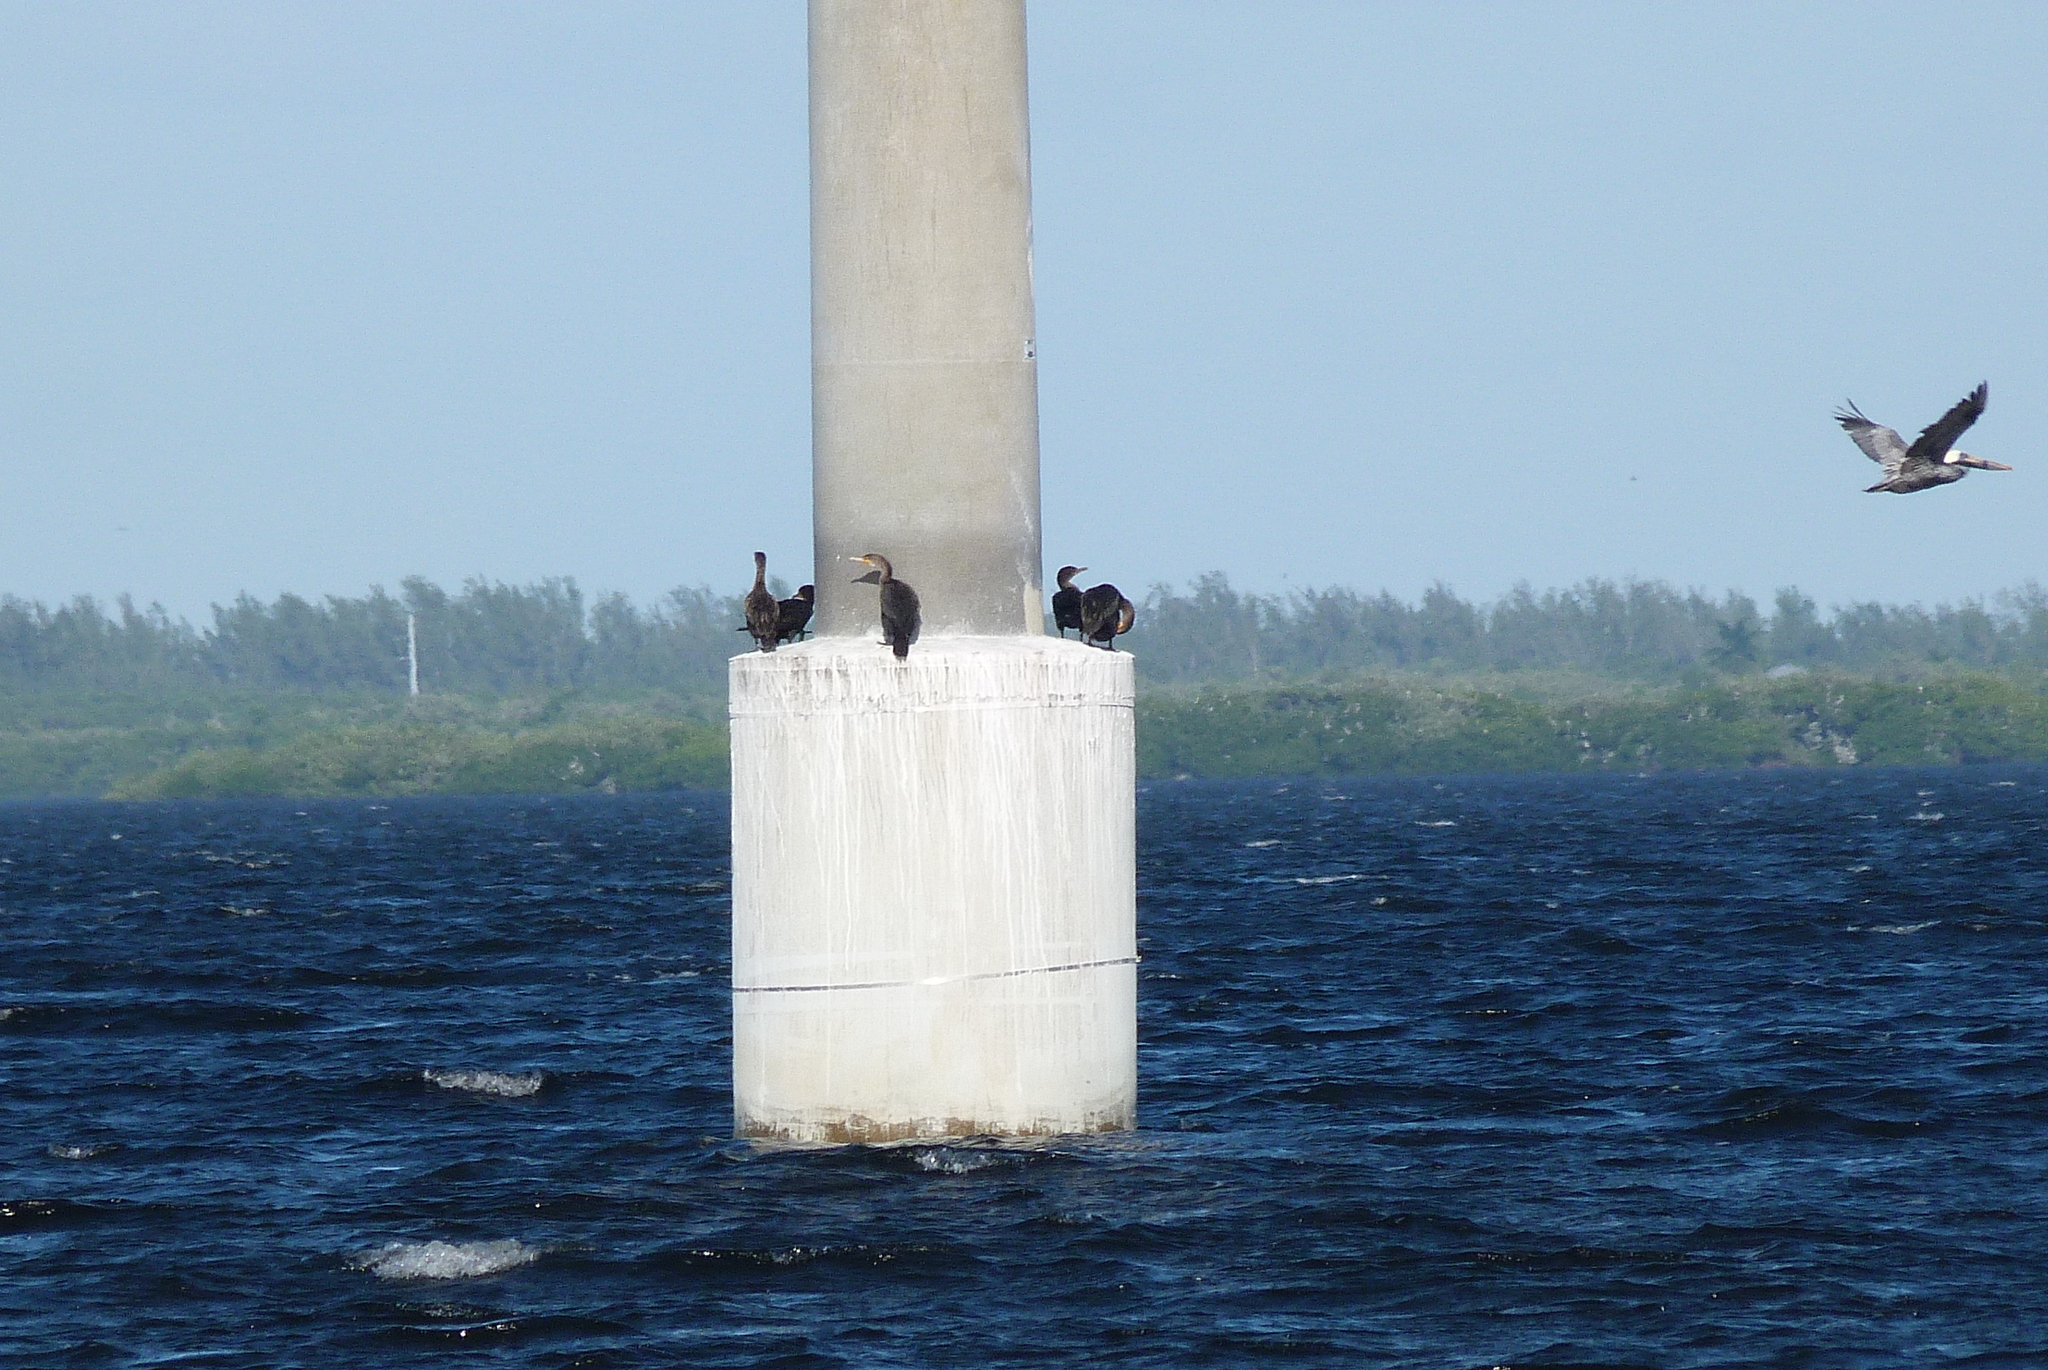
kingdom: Animalia
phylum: Chordata
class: Aves
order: Suliformes
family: Phalacrocoracidae
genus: Phalacrocorax
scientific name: Phalacrocorax auritus
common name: Double-crested cormorant
